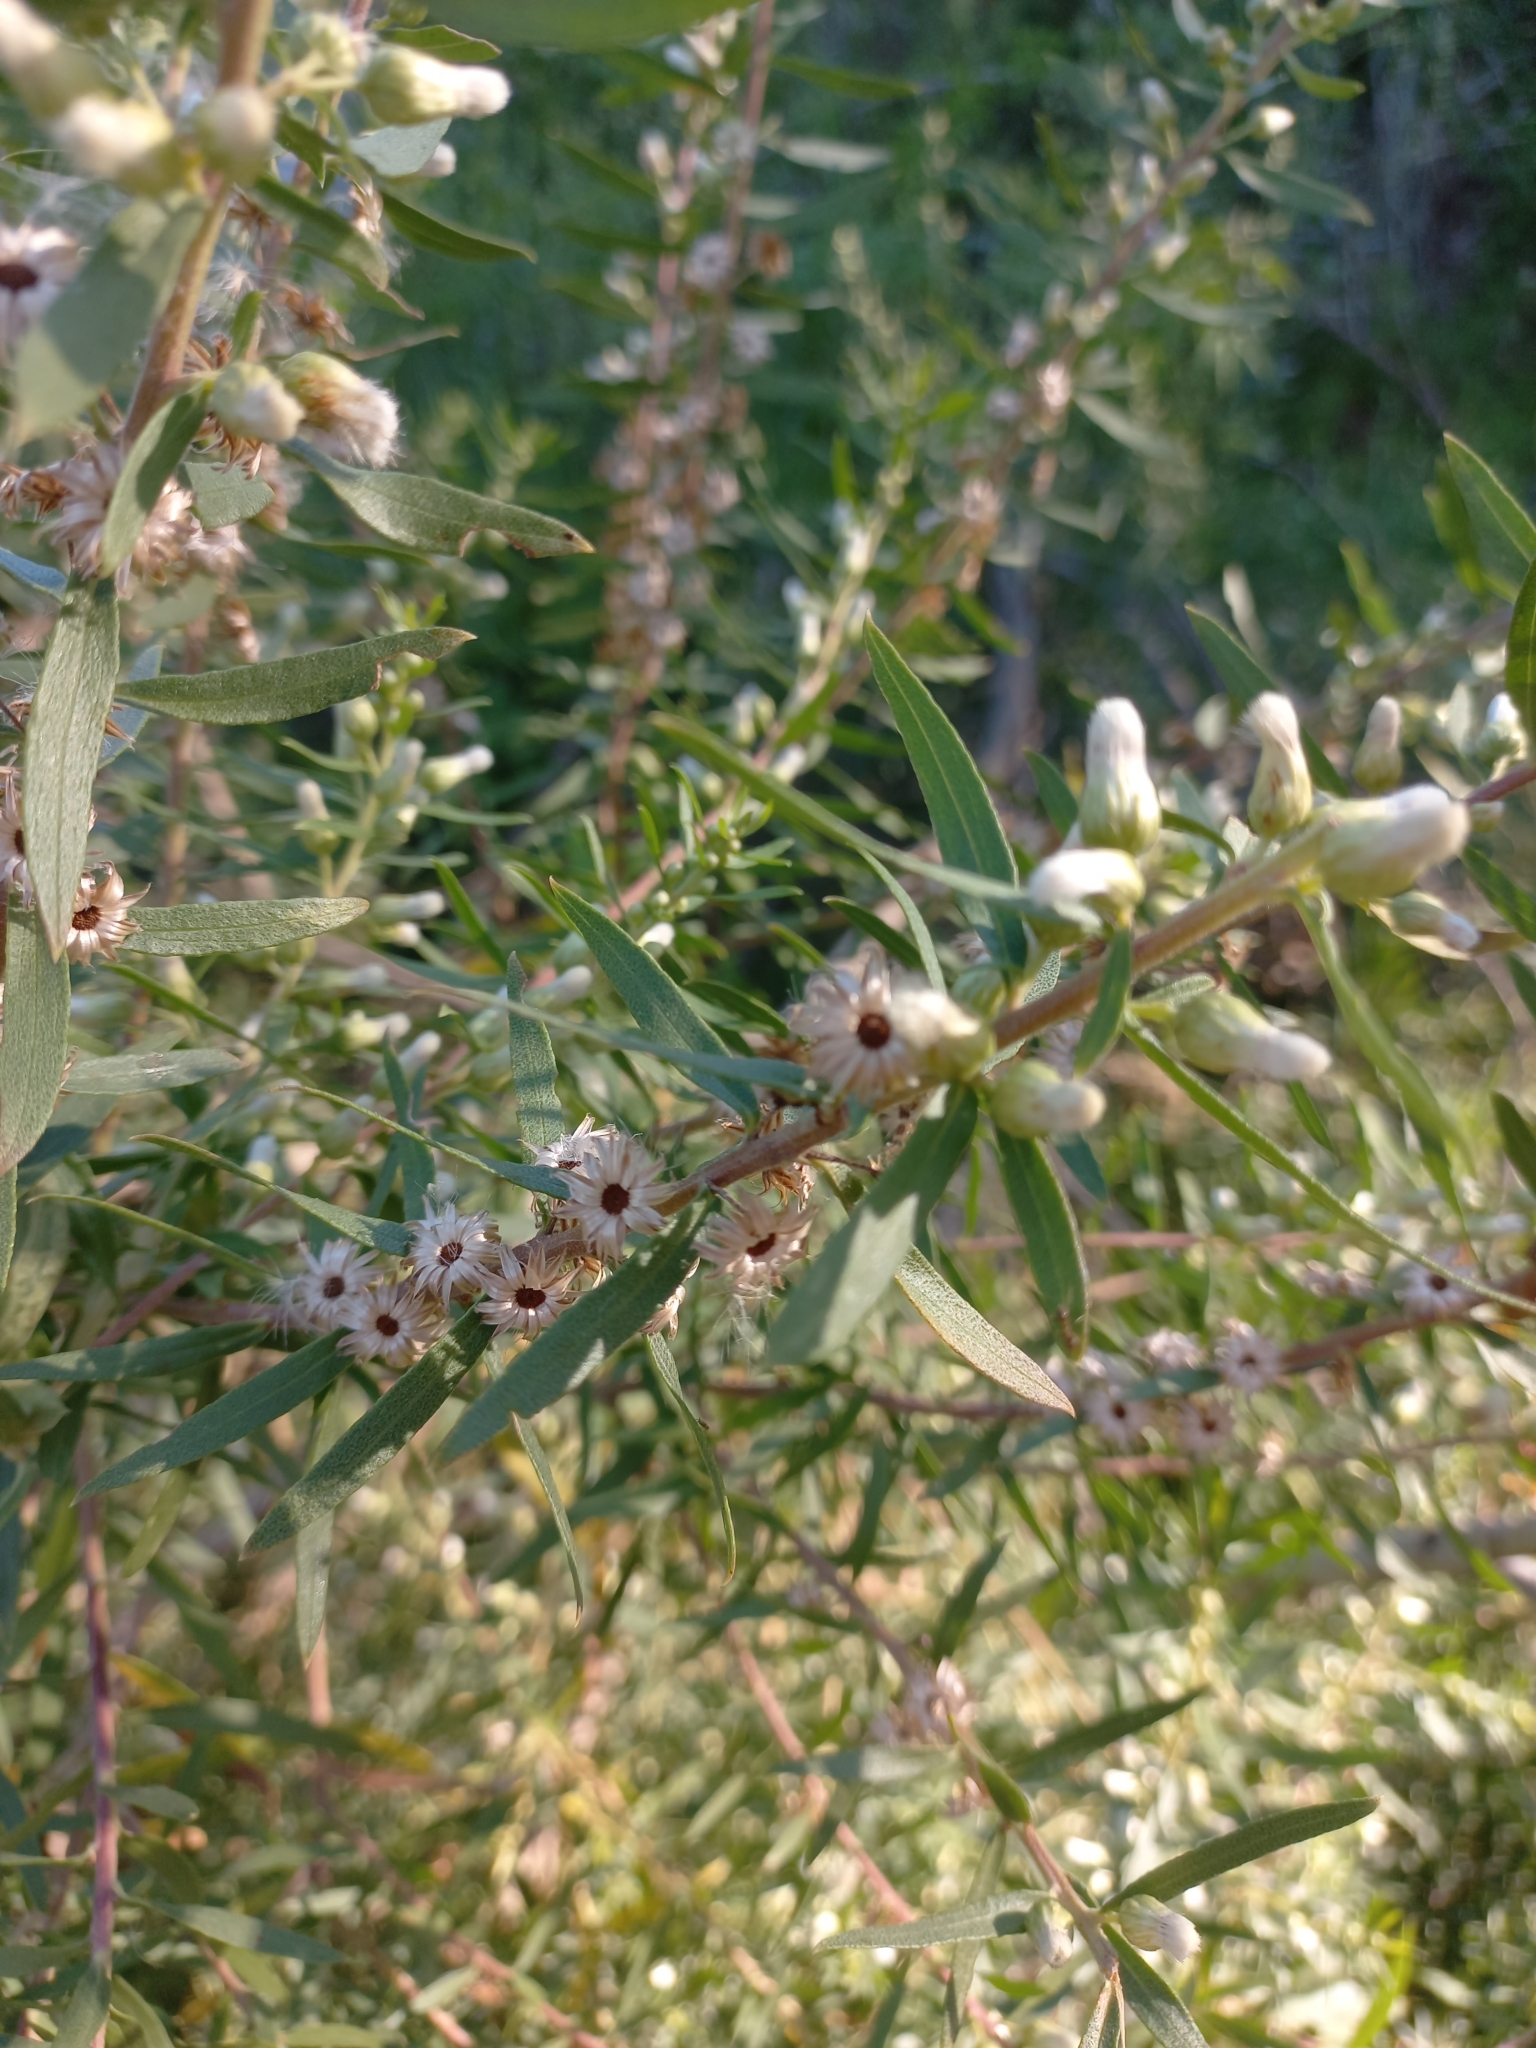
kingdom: Plantae
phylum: Tracheophyta
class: Magnoliopsida
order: Asterales
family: Asteraceae
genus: Baccharis
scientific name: Baccharis dracunculifolia
